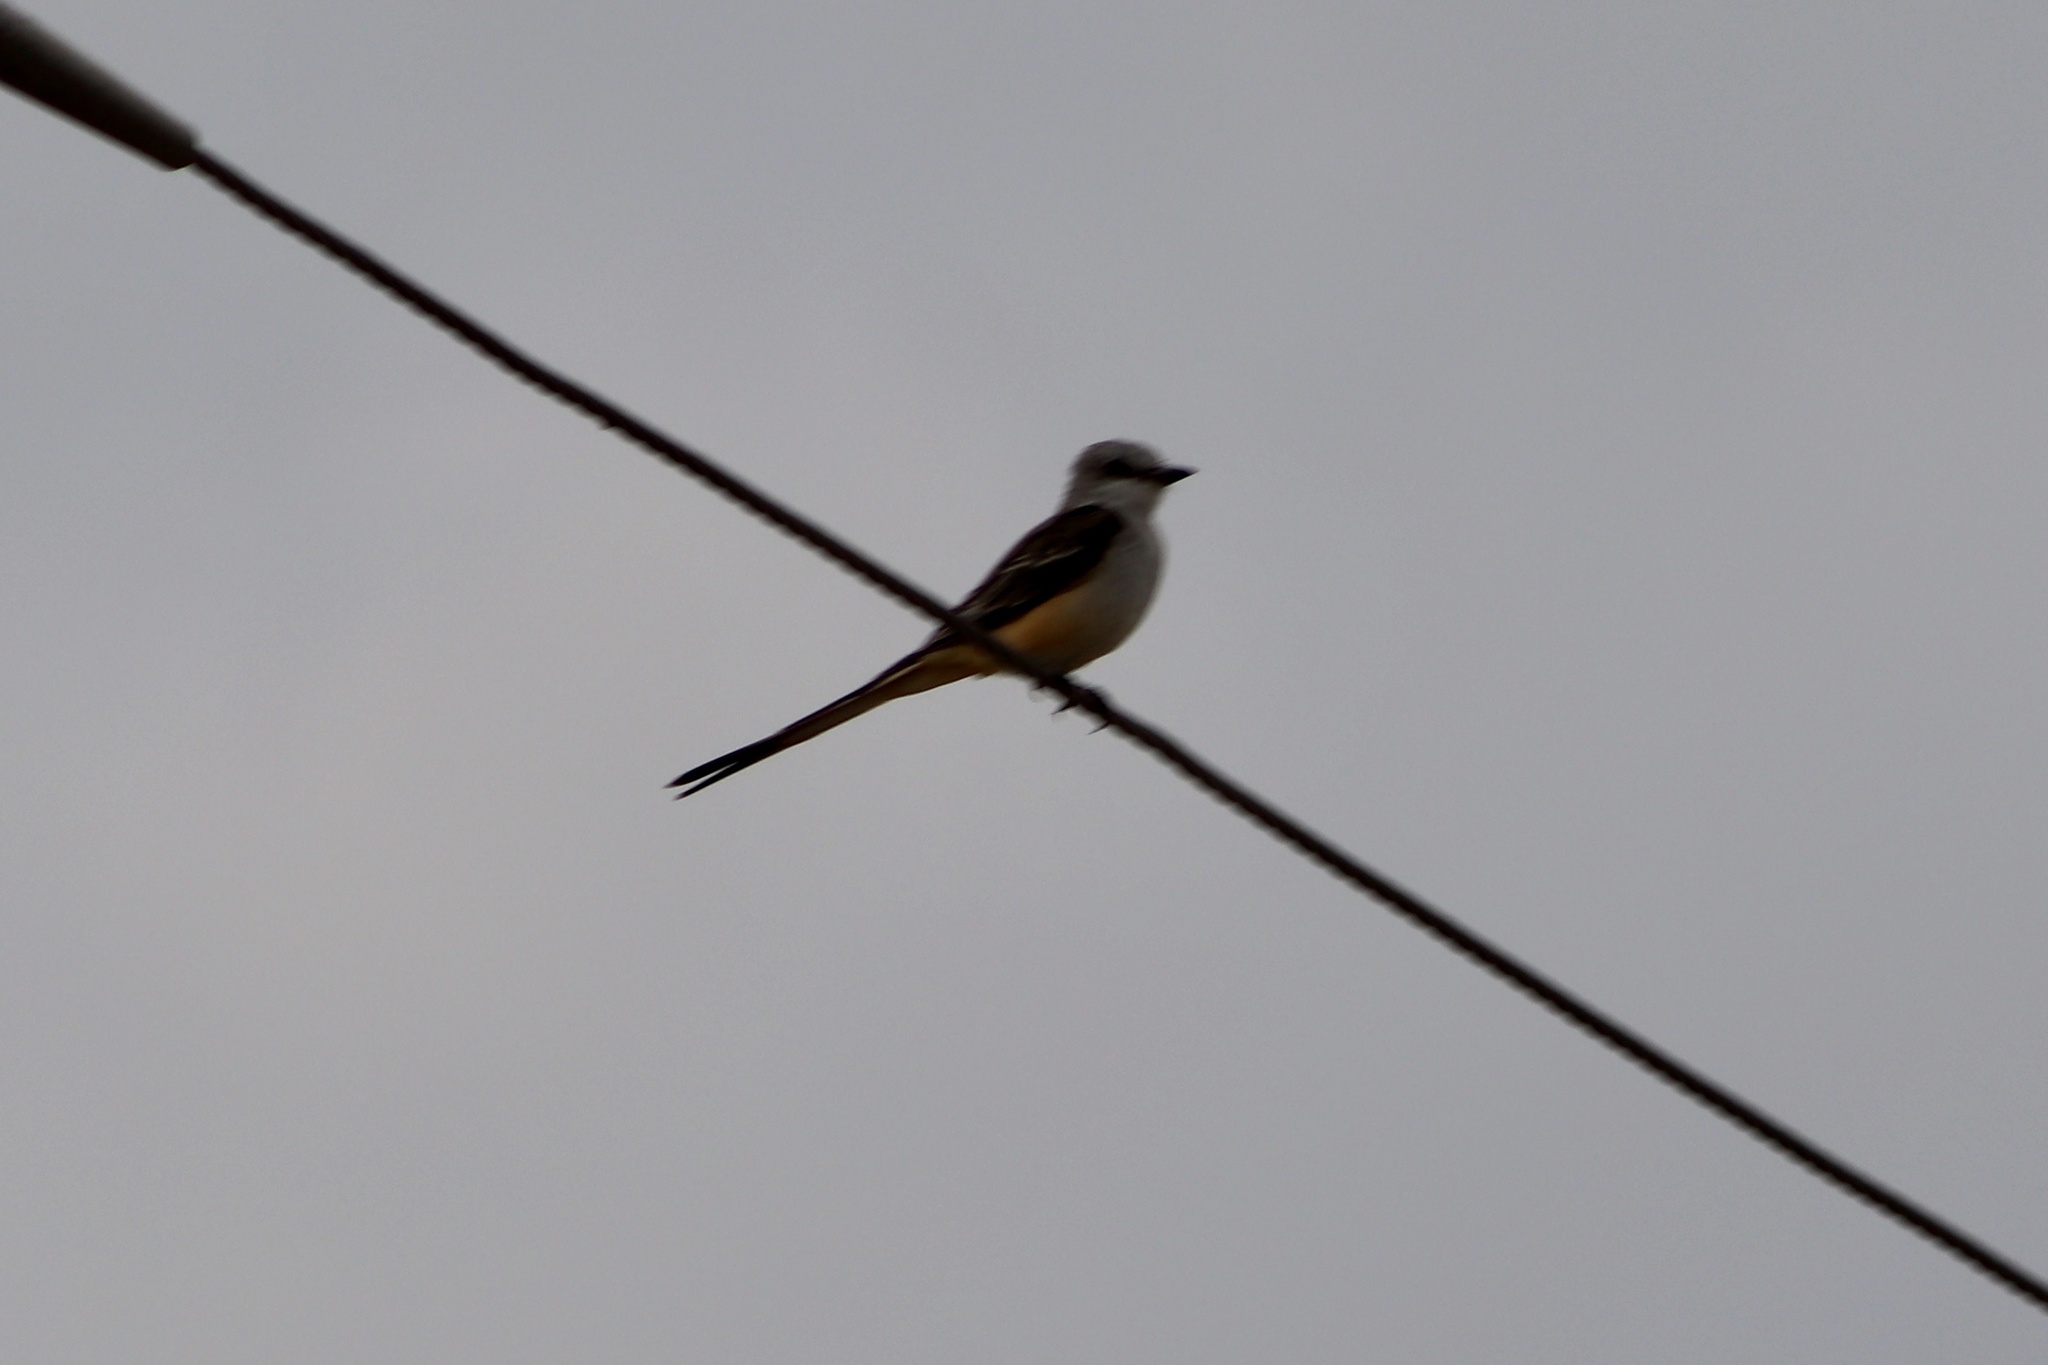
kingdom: Animalia
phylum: Chordata
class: Aves
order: Passeriformes
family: Tyrannidae
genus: Tyrannus
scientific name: Tyrannus forficatus
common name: Scissor-tailed flycatcher
